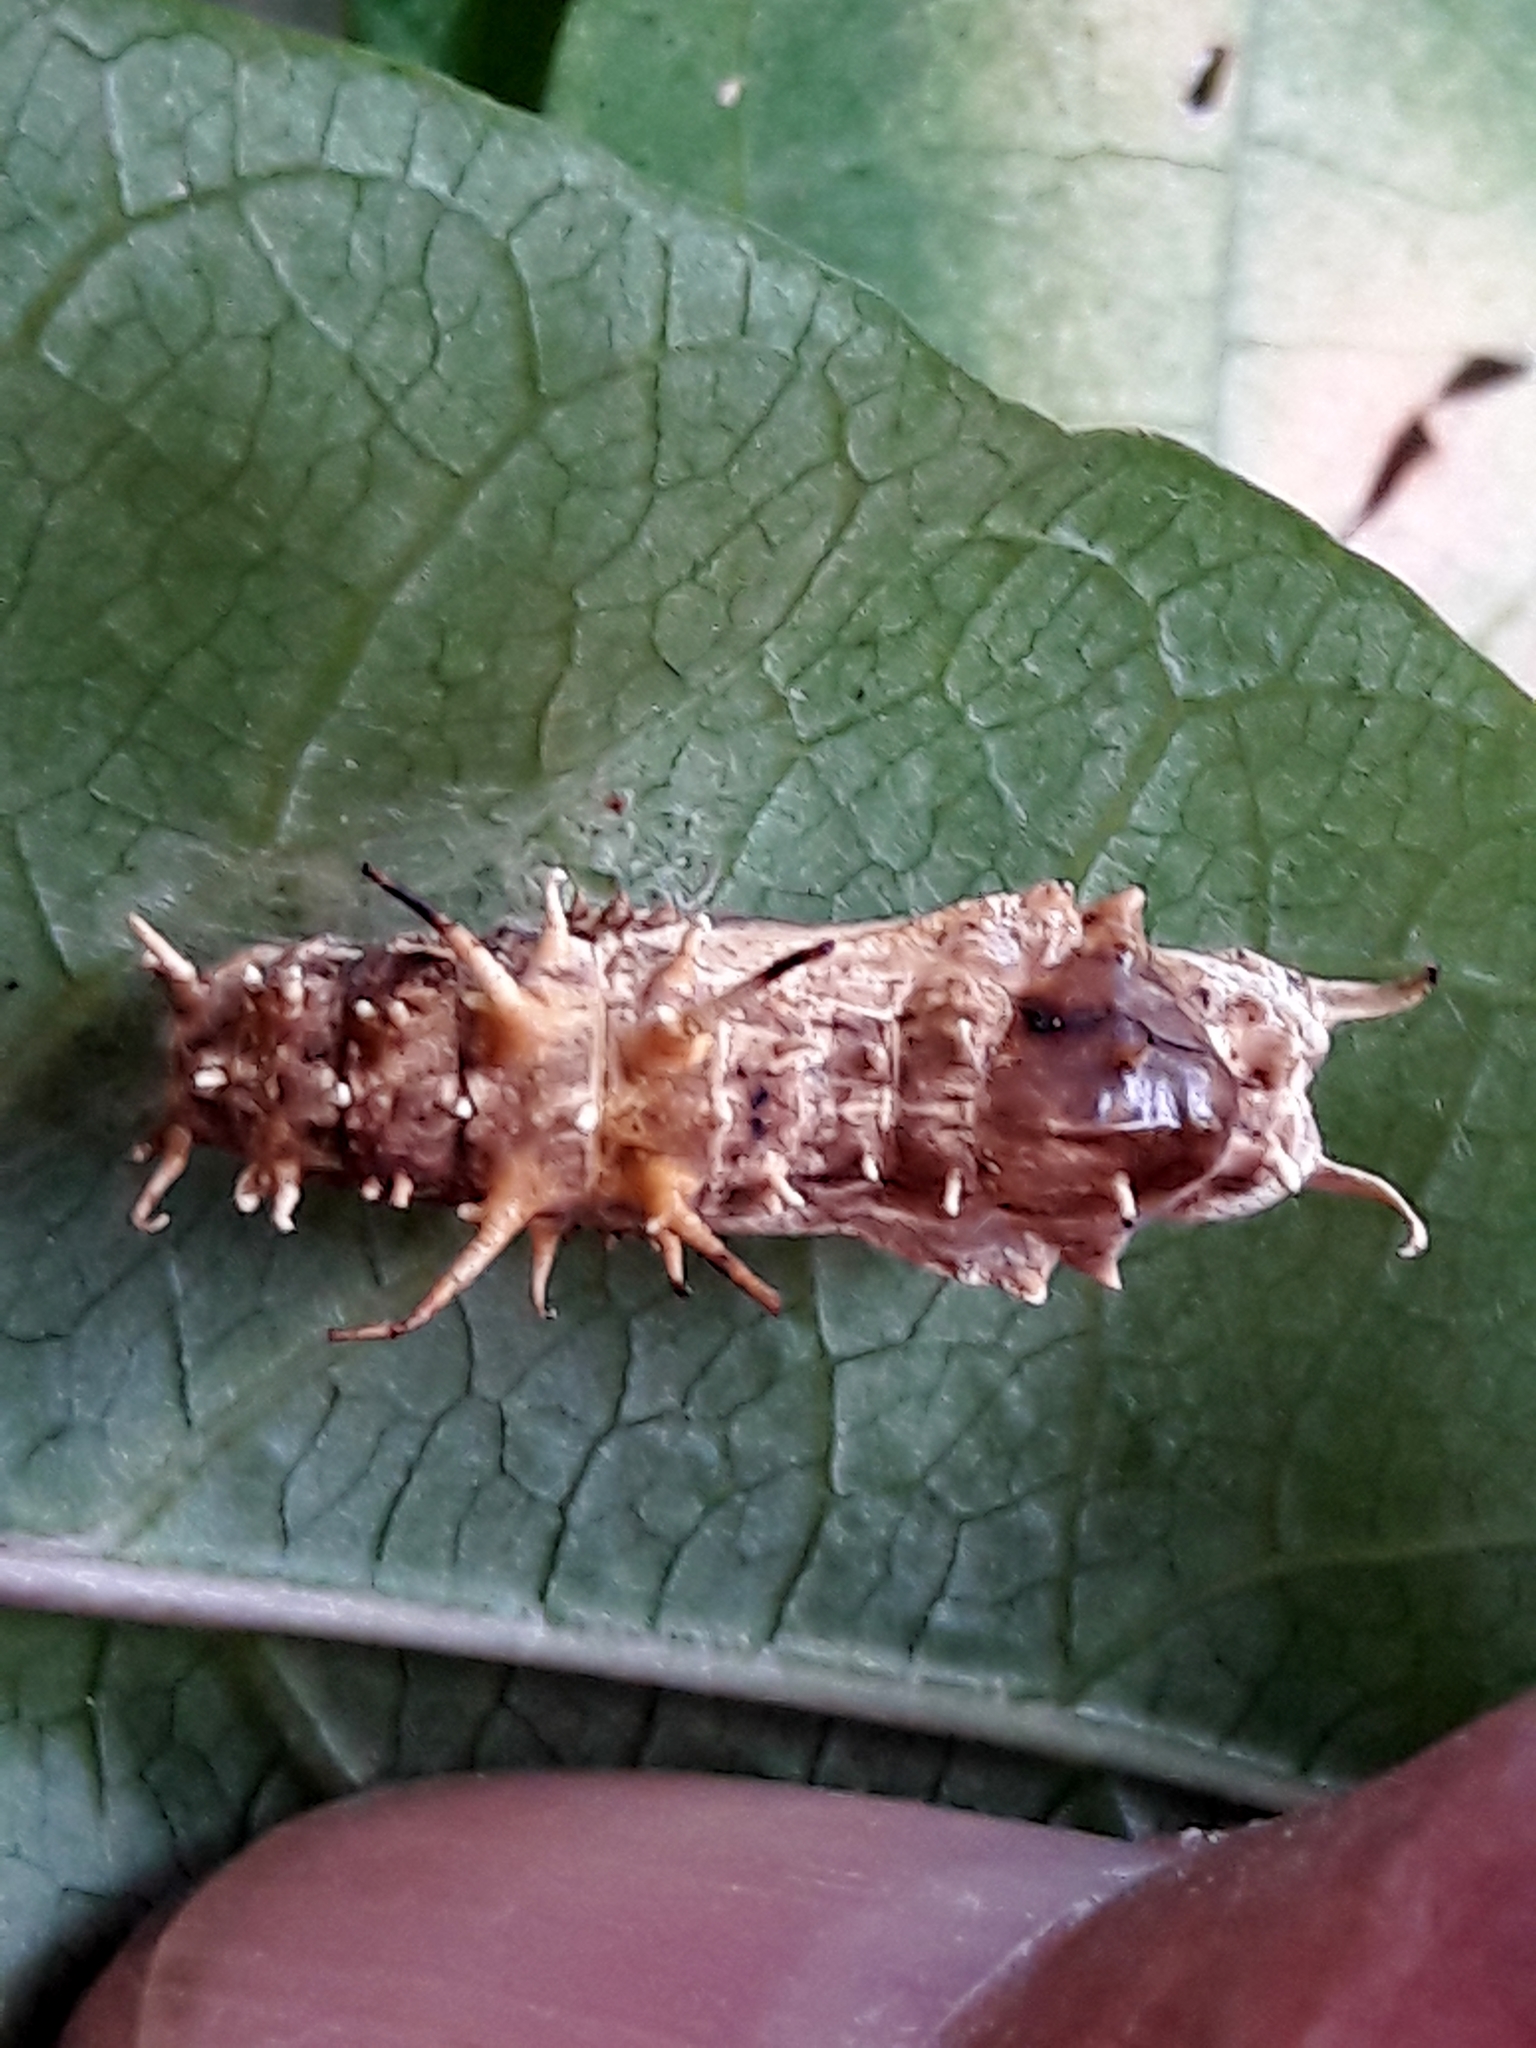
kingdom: Animalia
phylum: Arthropoda
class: Insecta
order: Lepidoptera
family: Nymphalidae
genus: Eueides
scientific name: Eueides isabella
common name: Isabella's longwing
